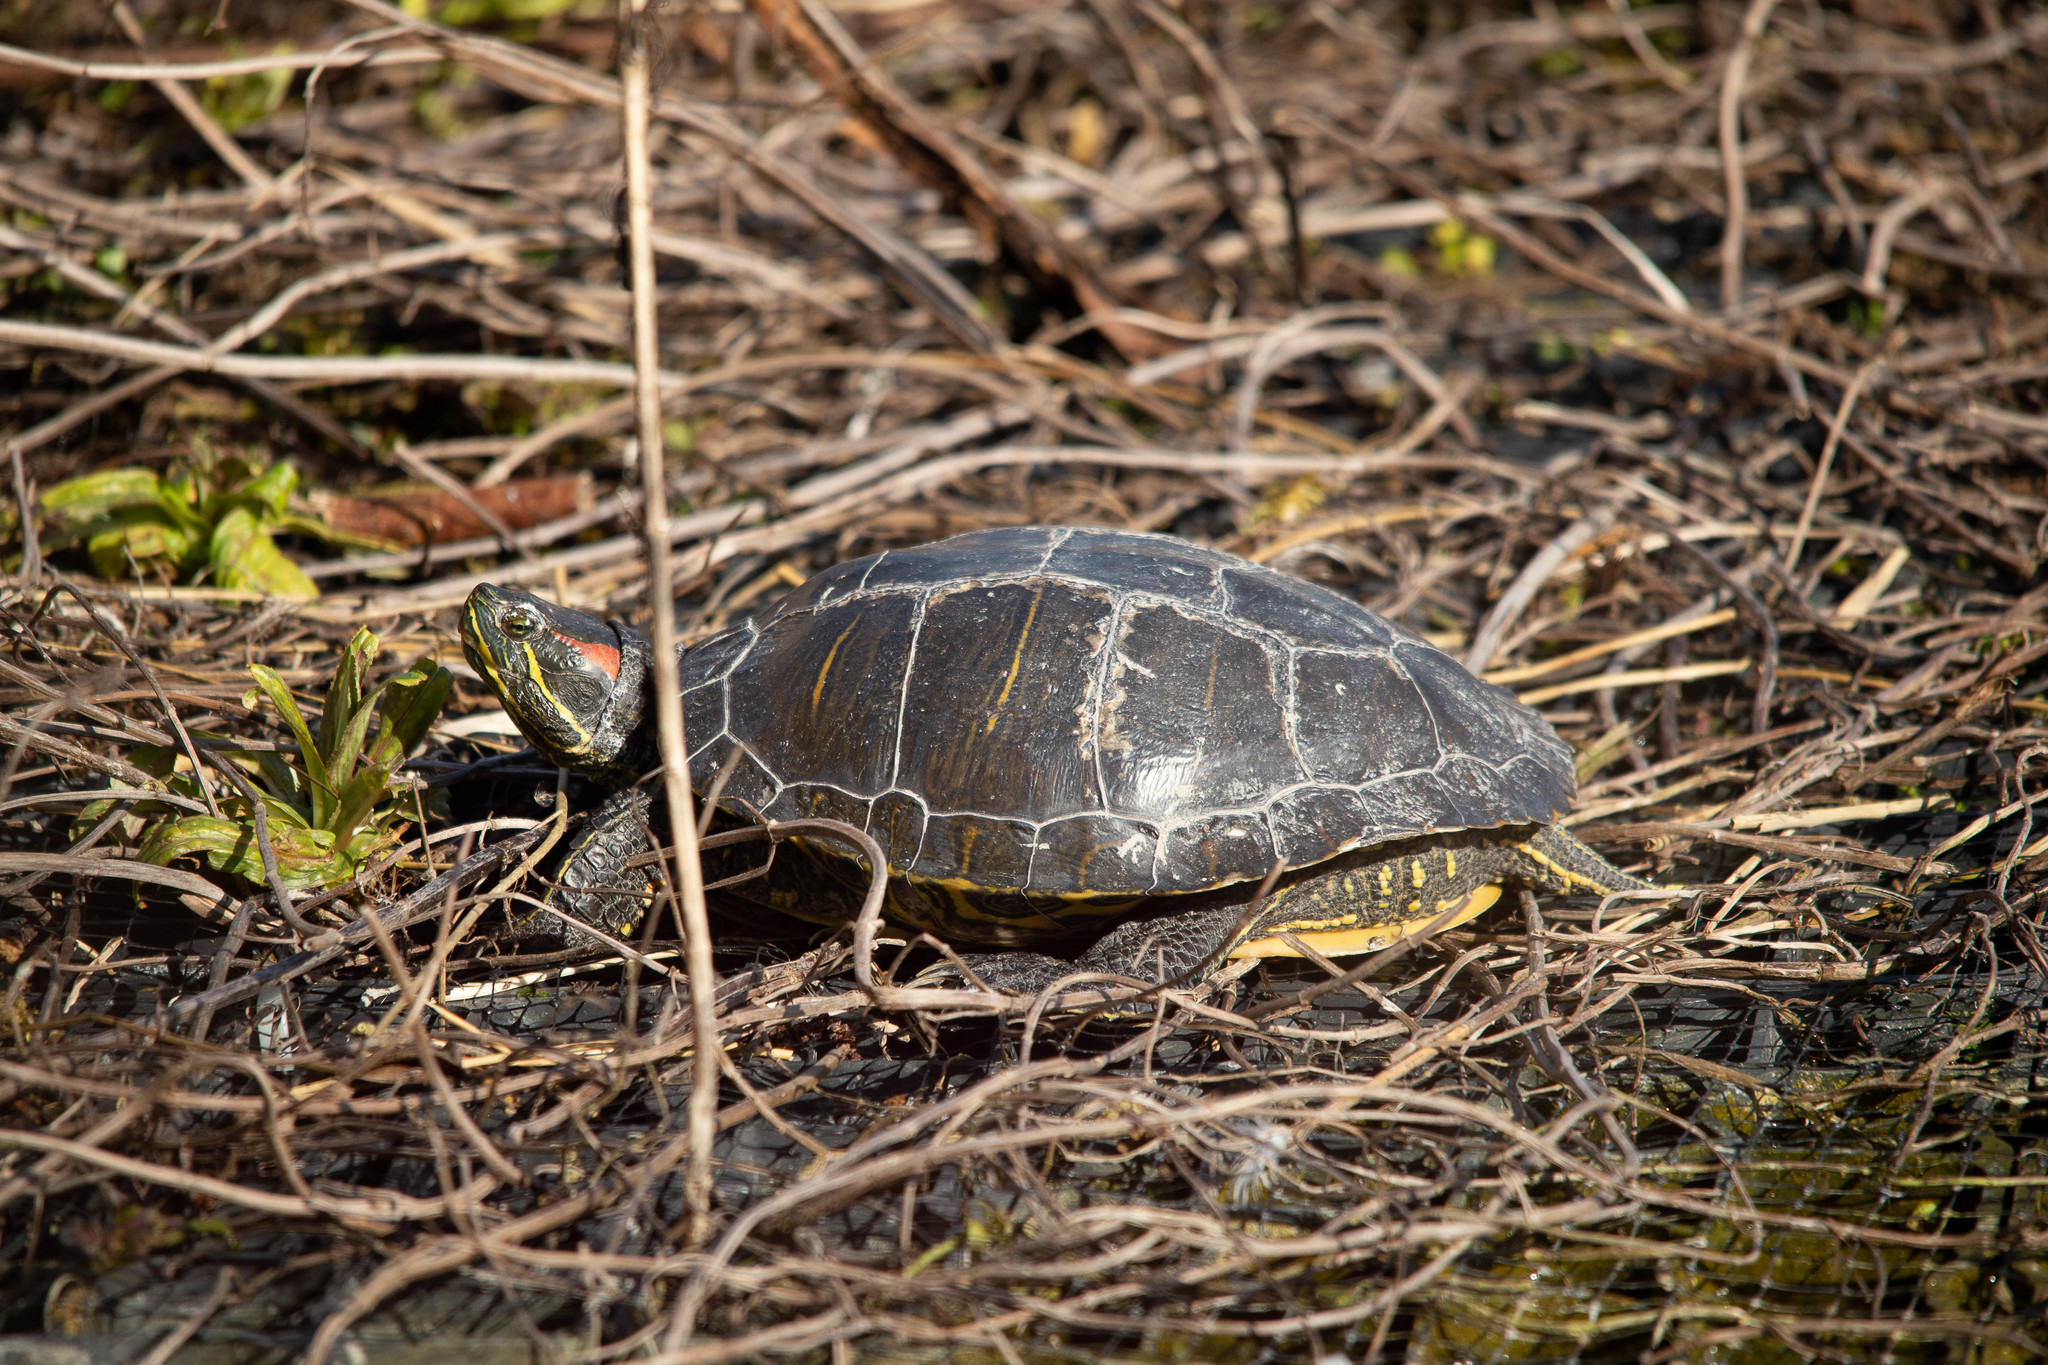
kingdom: Animalia
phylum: Chordata
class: Testudines
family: Emydidae
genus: Trachemys
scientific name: Trachemys scripta
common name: Slider
